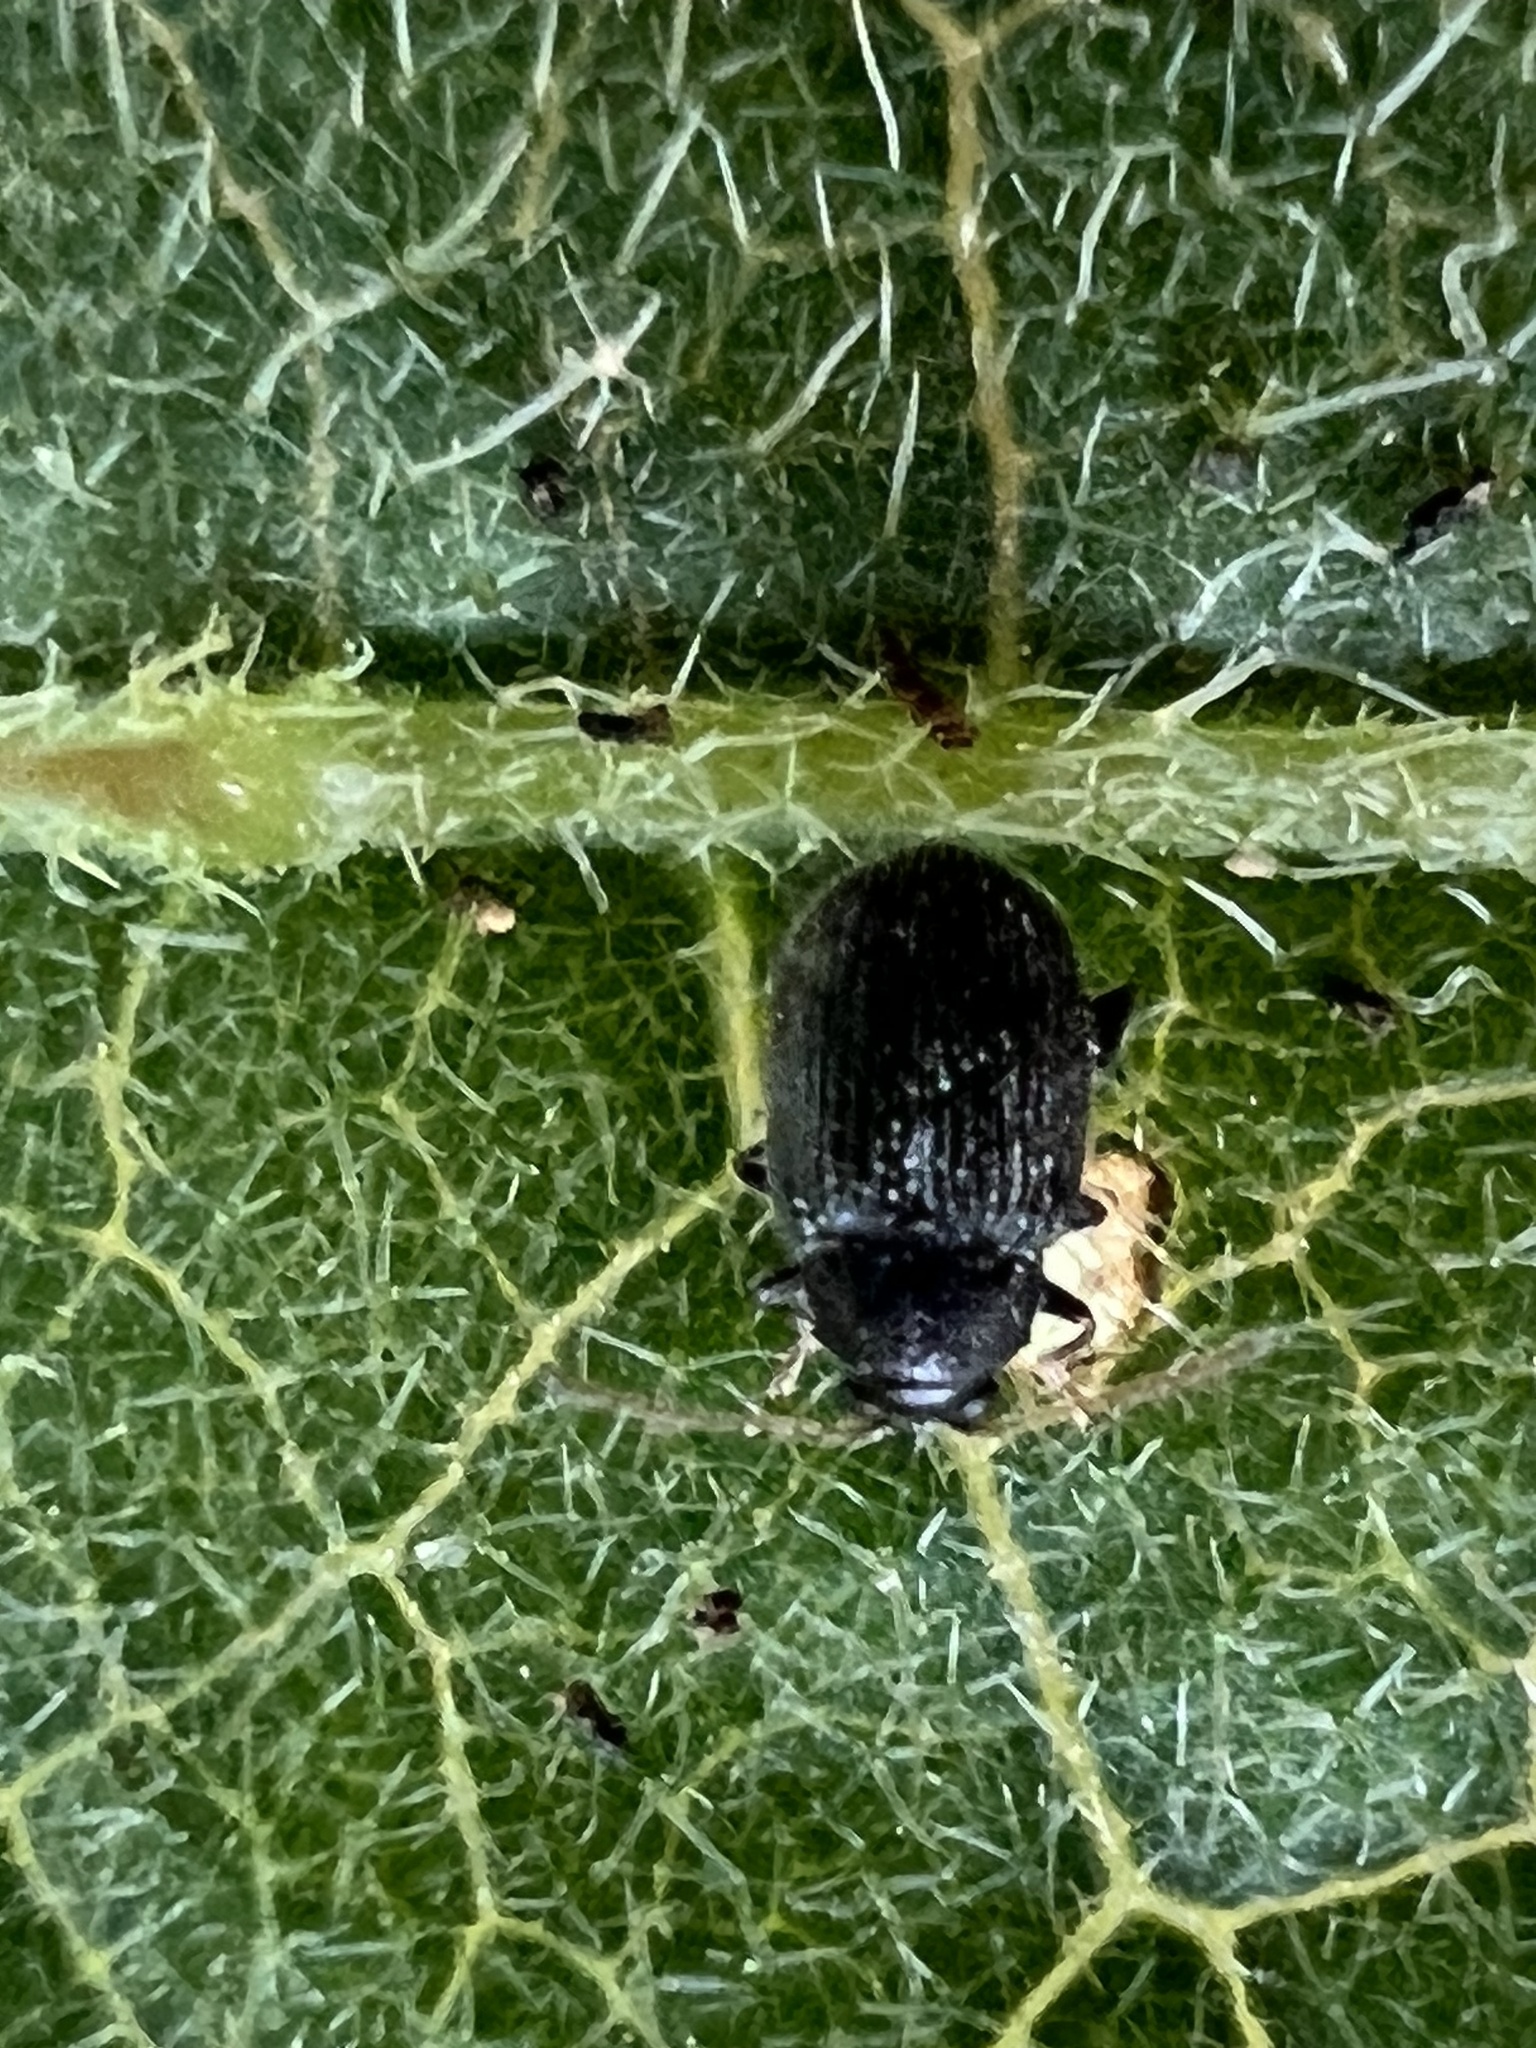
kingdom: Animalia
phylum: Arthropoda
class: Insecta
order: Coleoptera
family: Chrysomelidae
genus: Epitrix
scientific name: Epitrix fuscula
